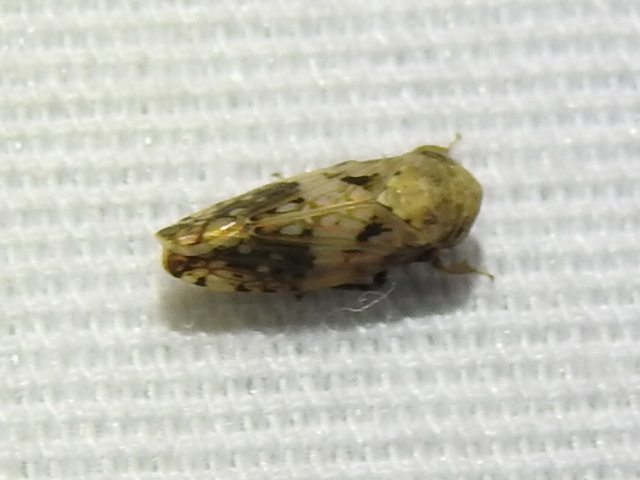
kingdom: Animalia
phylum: Arthropoda
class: Insecta
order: Hemiptera
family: Cicadellidae
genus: Menosoma
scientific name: Menosoma cinctum
